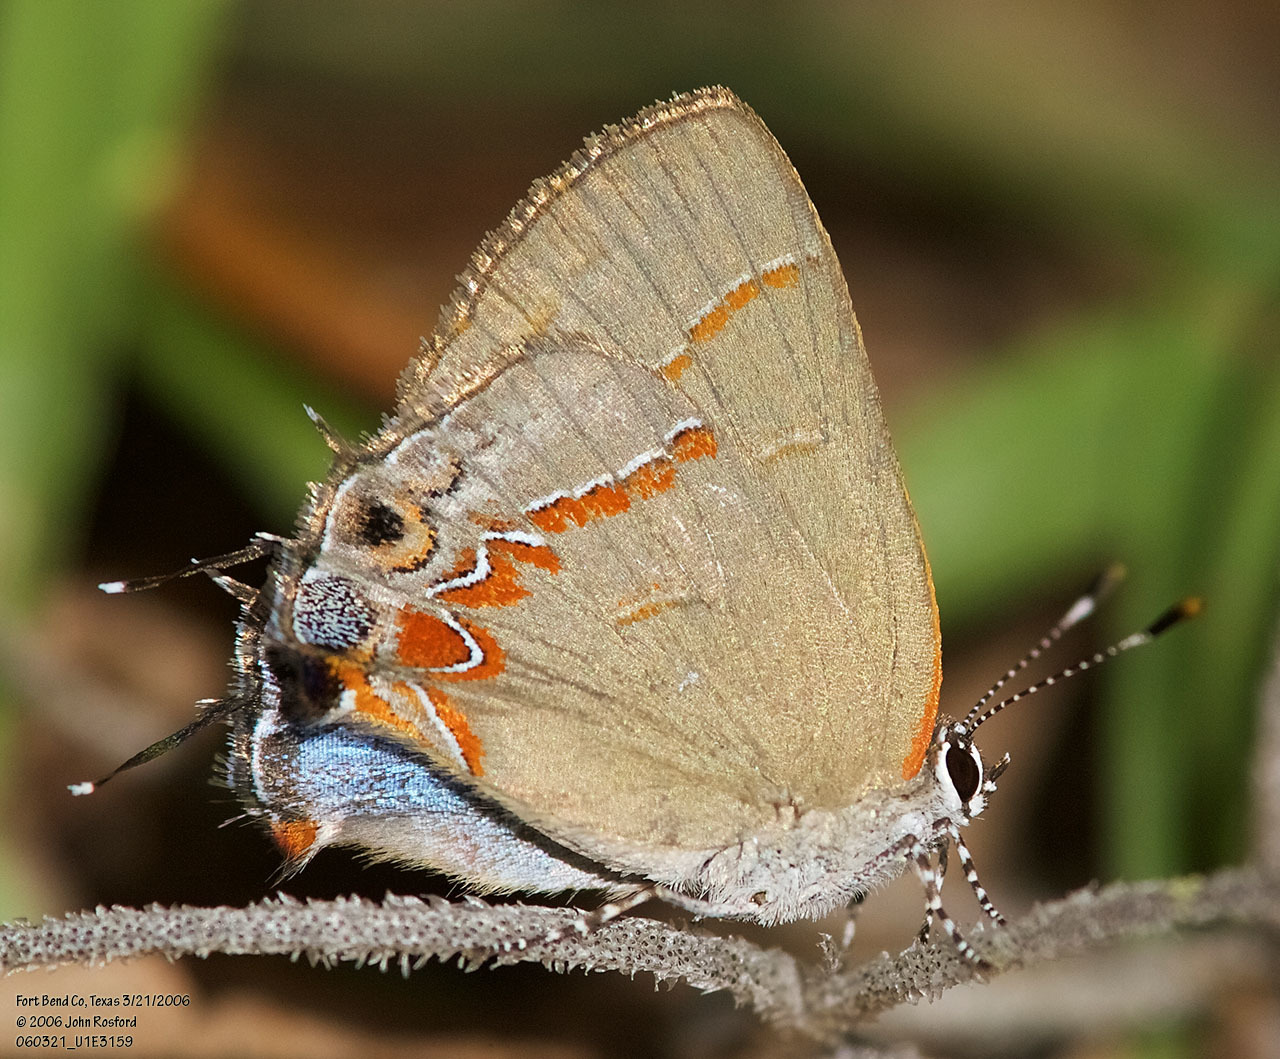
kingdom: Animalia
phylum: Arthropoda
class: Insecta
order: Lepidoptera
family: Lycaenidae
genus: Calycopis
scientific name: Calycopis cecrops
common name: Red-banded hairstreak
